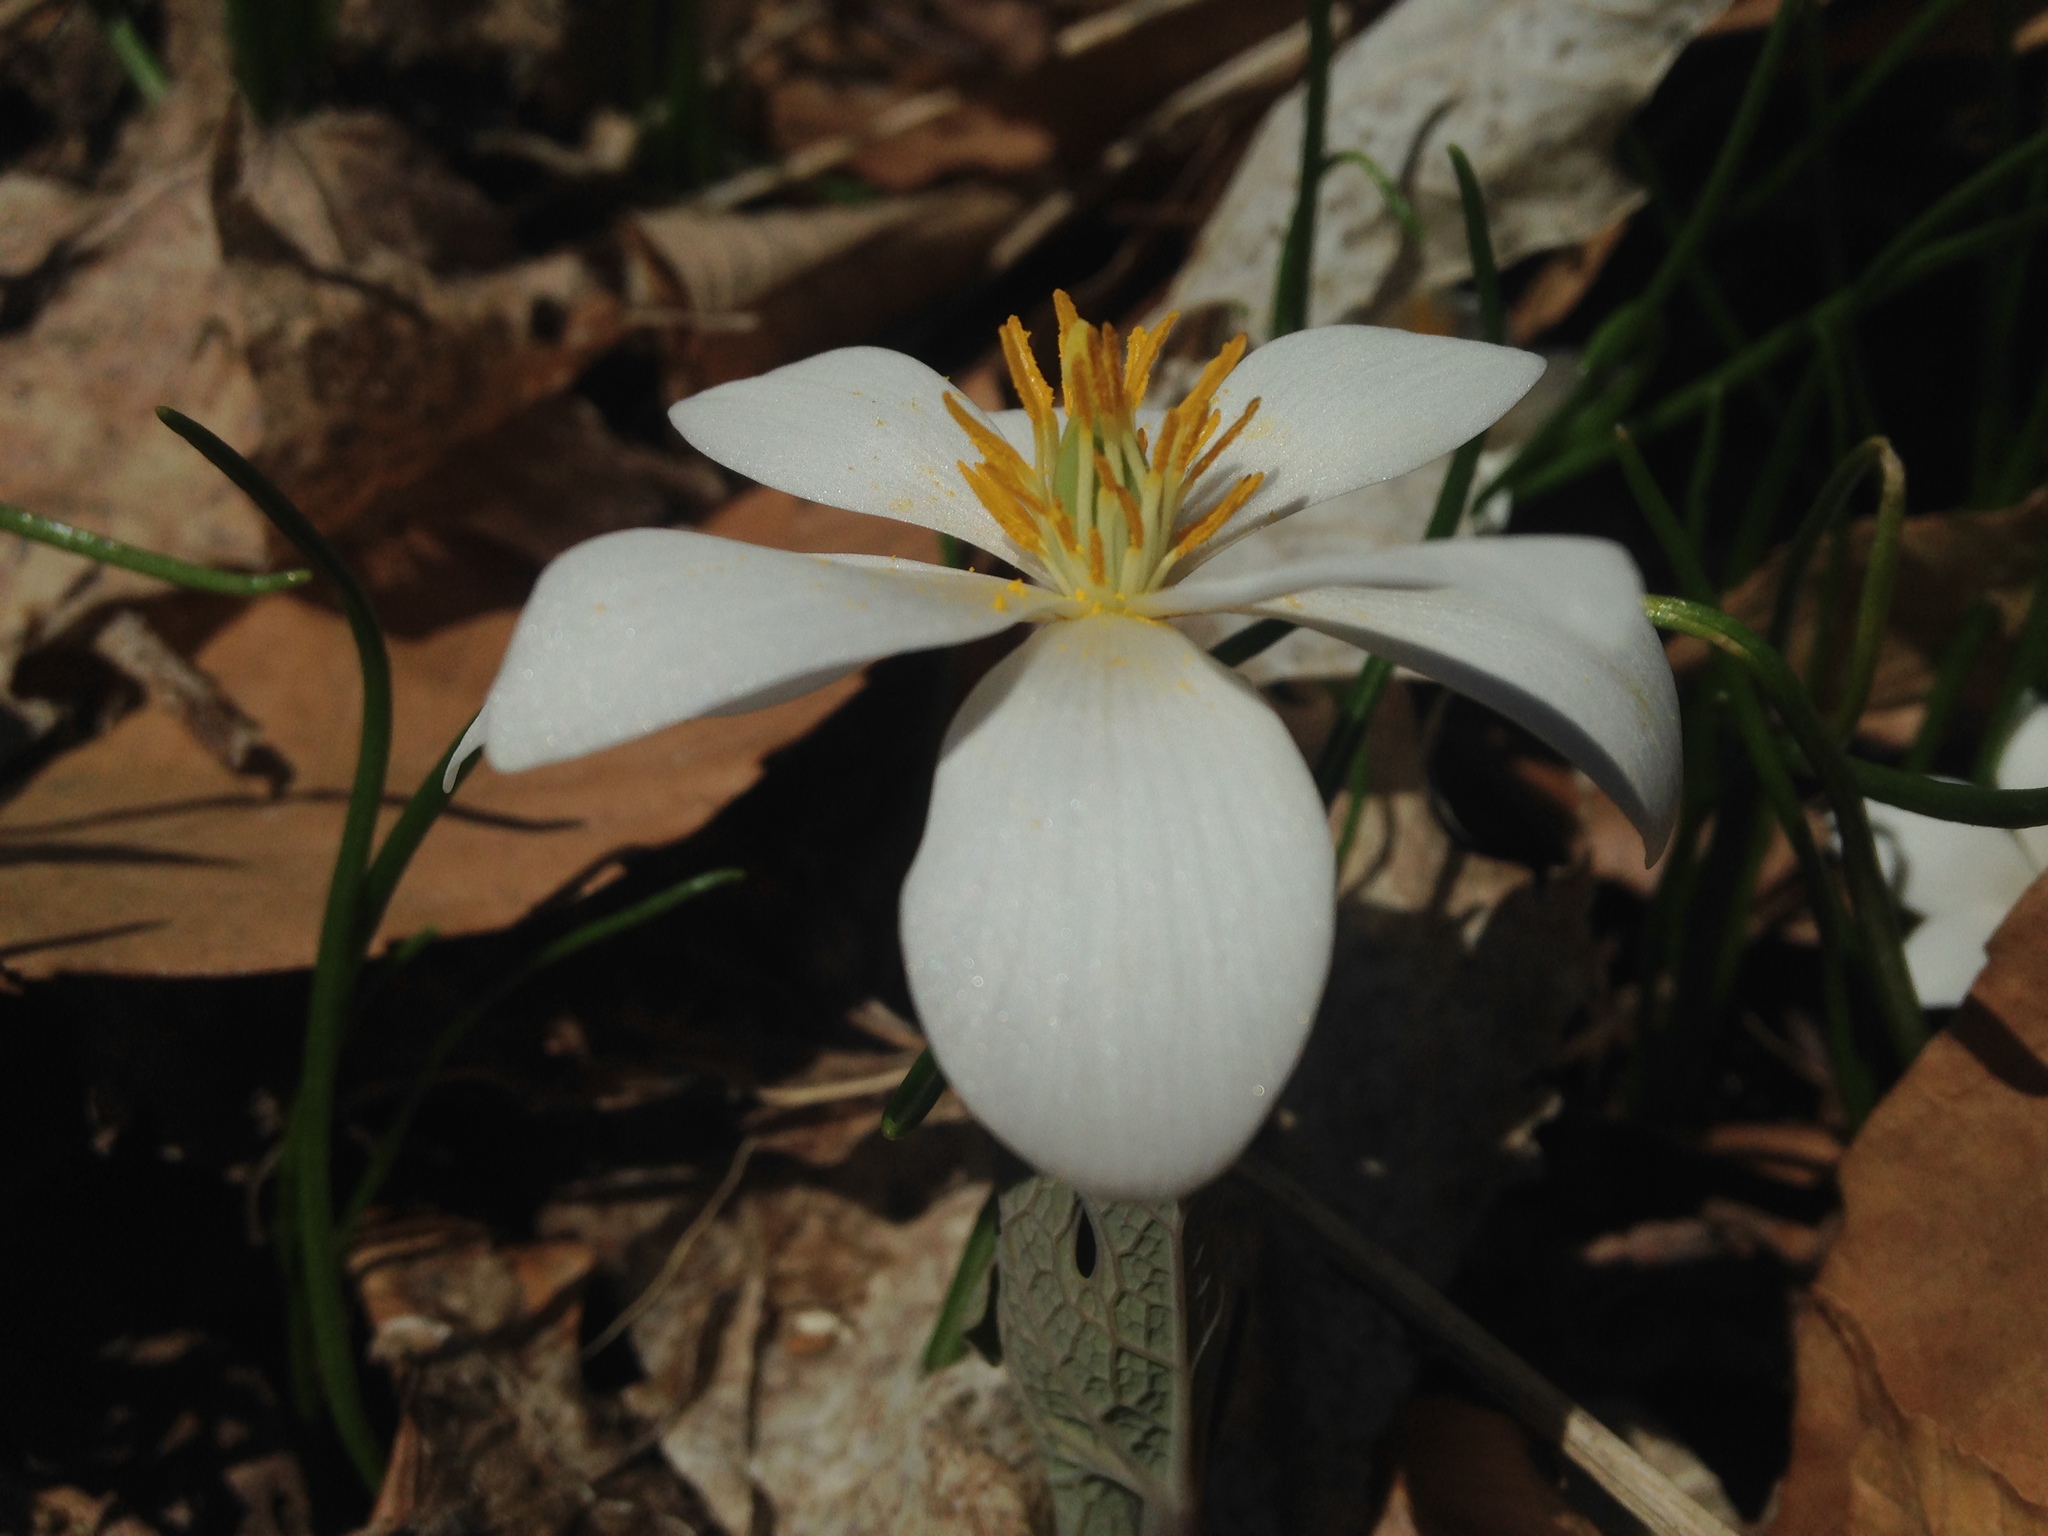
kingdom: Plantae
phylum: Tracheophyta
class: Magnoliopsida
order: Ranunculales
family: Papaveraceae
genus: Sanguinaria
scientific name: Sanguinaria canadensis
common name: Bloodroot
